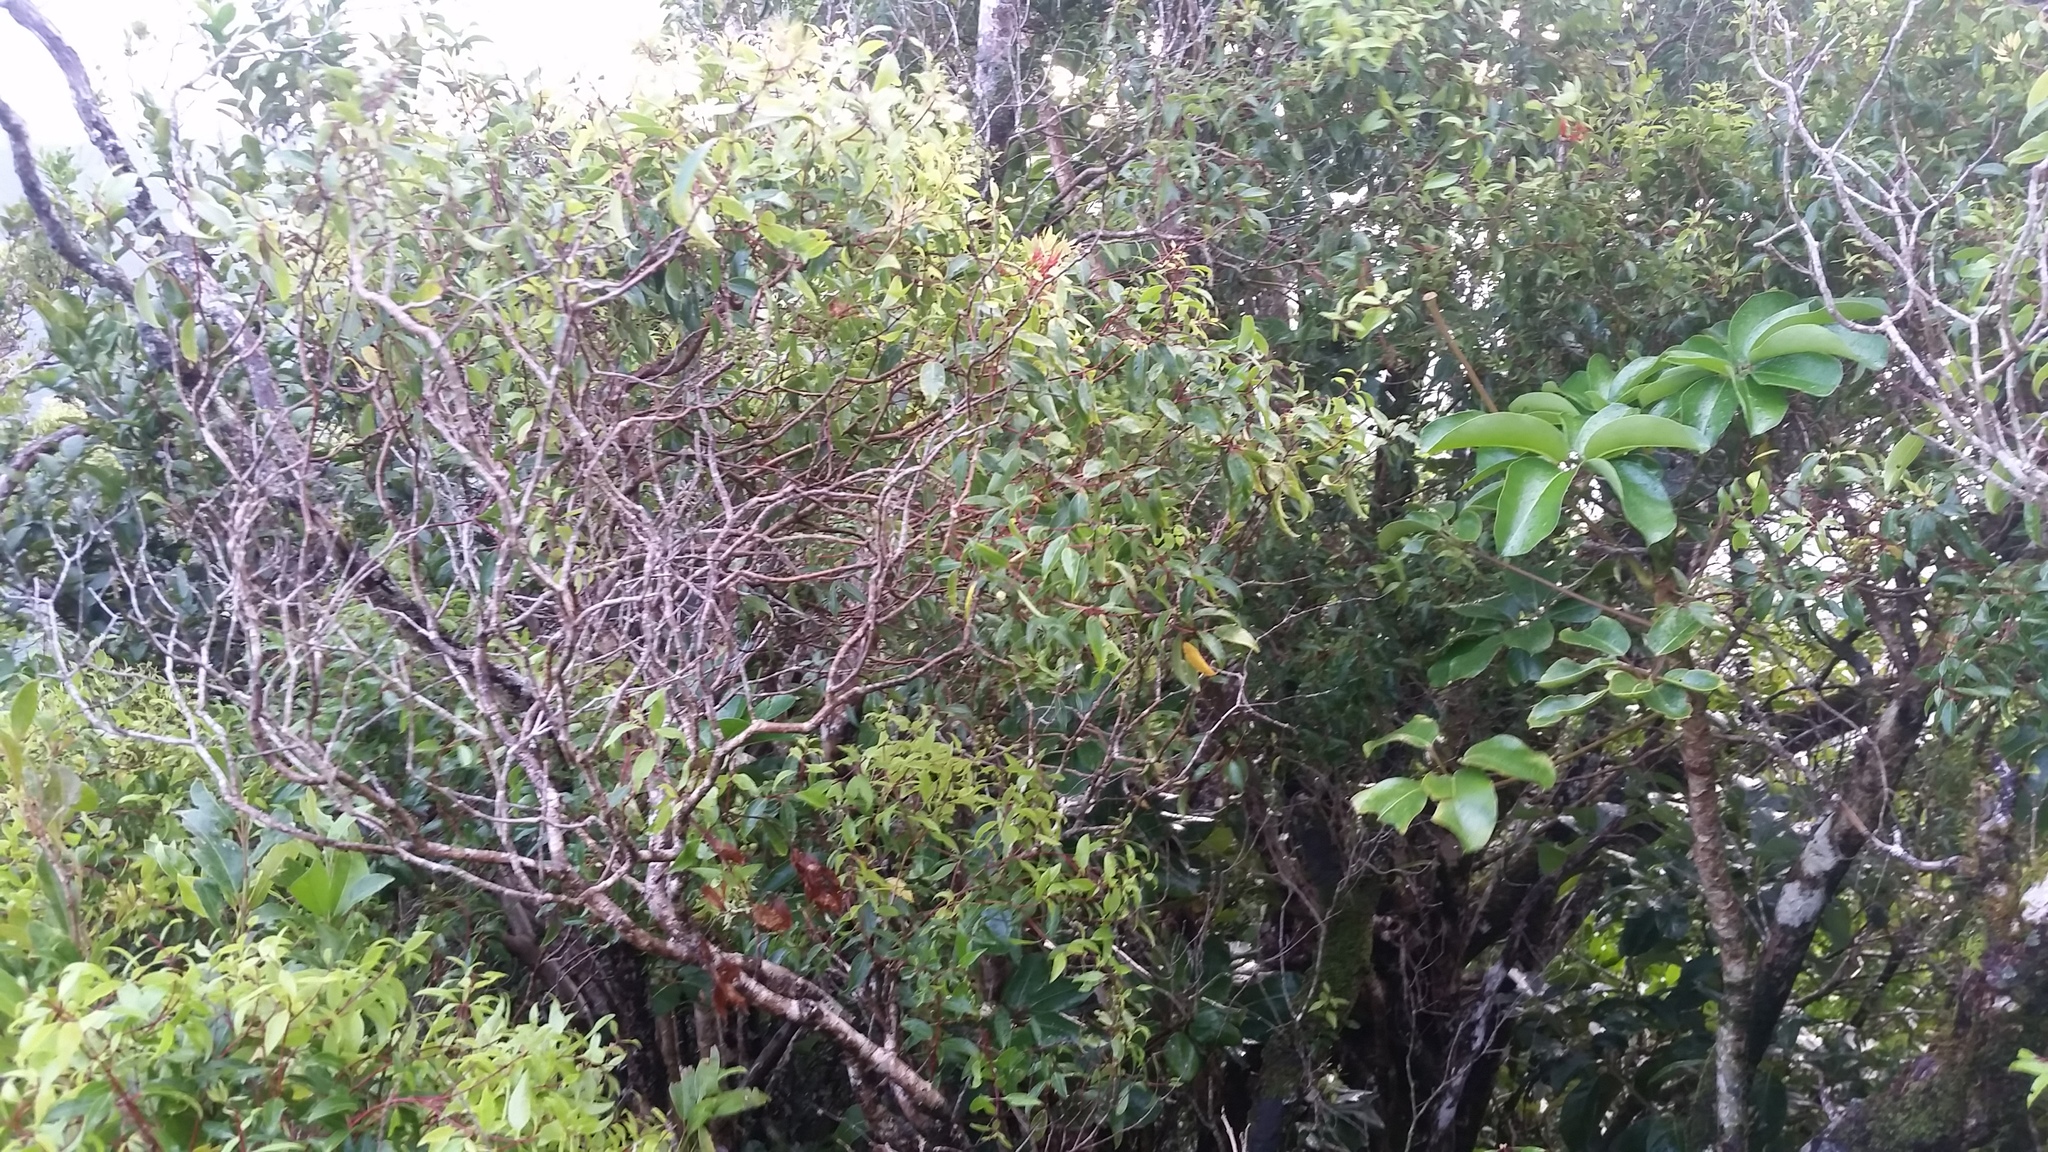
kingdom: Plantae
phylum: Tracheophyta
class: Magnoliopsida
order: Myrtales
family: Myrtaceae
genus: Metrosideros
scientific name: Metrosideros tremuloides
